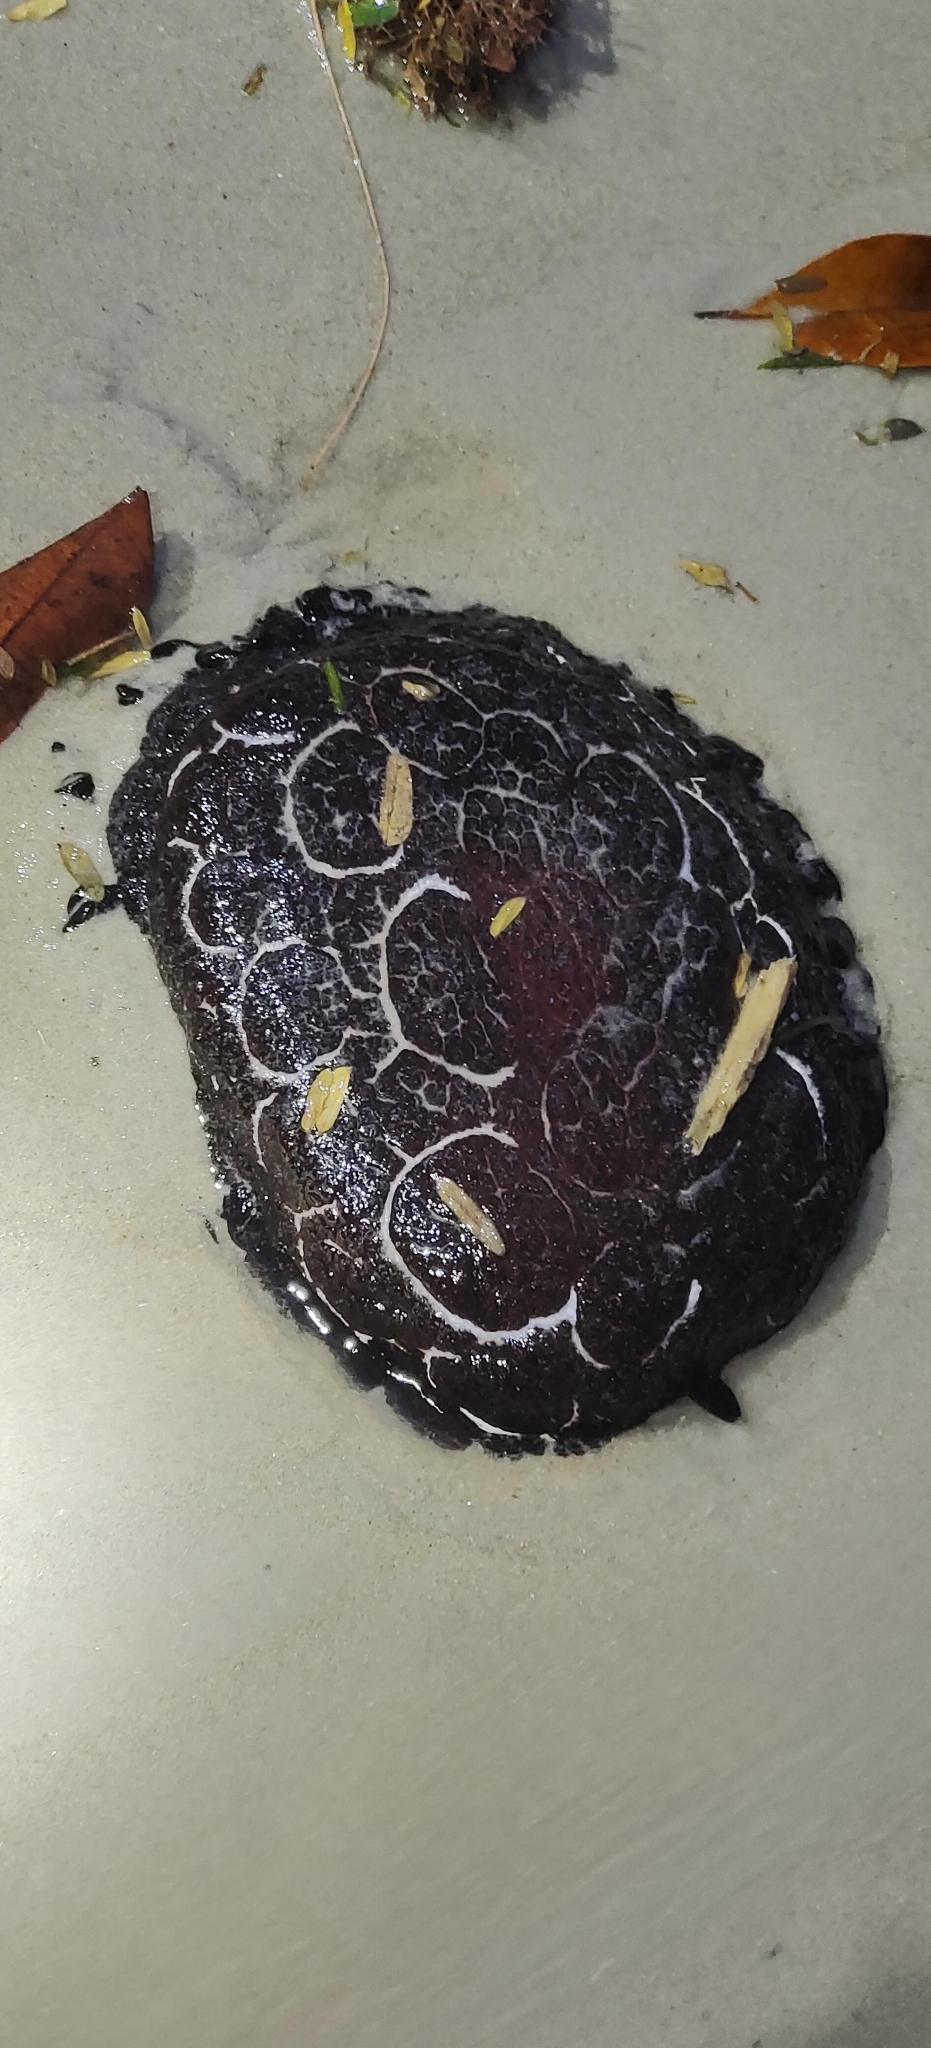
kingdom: Animalia
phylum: Mollusca
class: Gastropoda
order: Pleurobranchida
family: Pleurobranchidae
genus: Pleurobranchus
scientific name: Pleurobranchus forskalii
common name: Forskal's side-gilled sea slug
